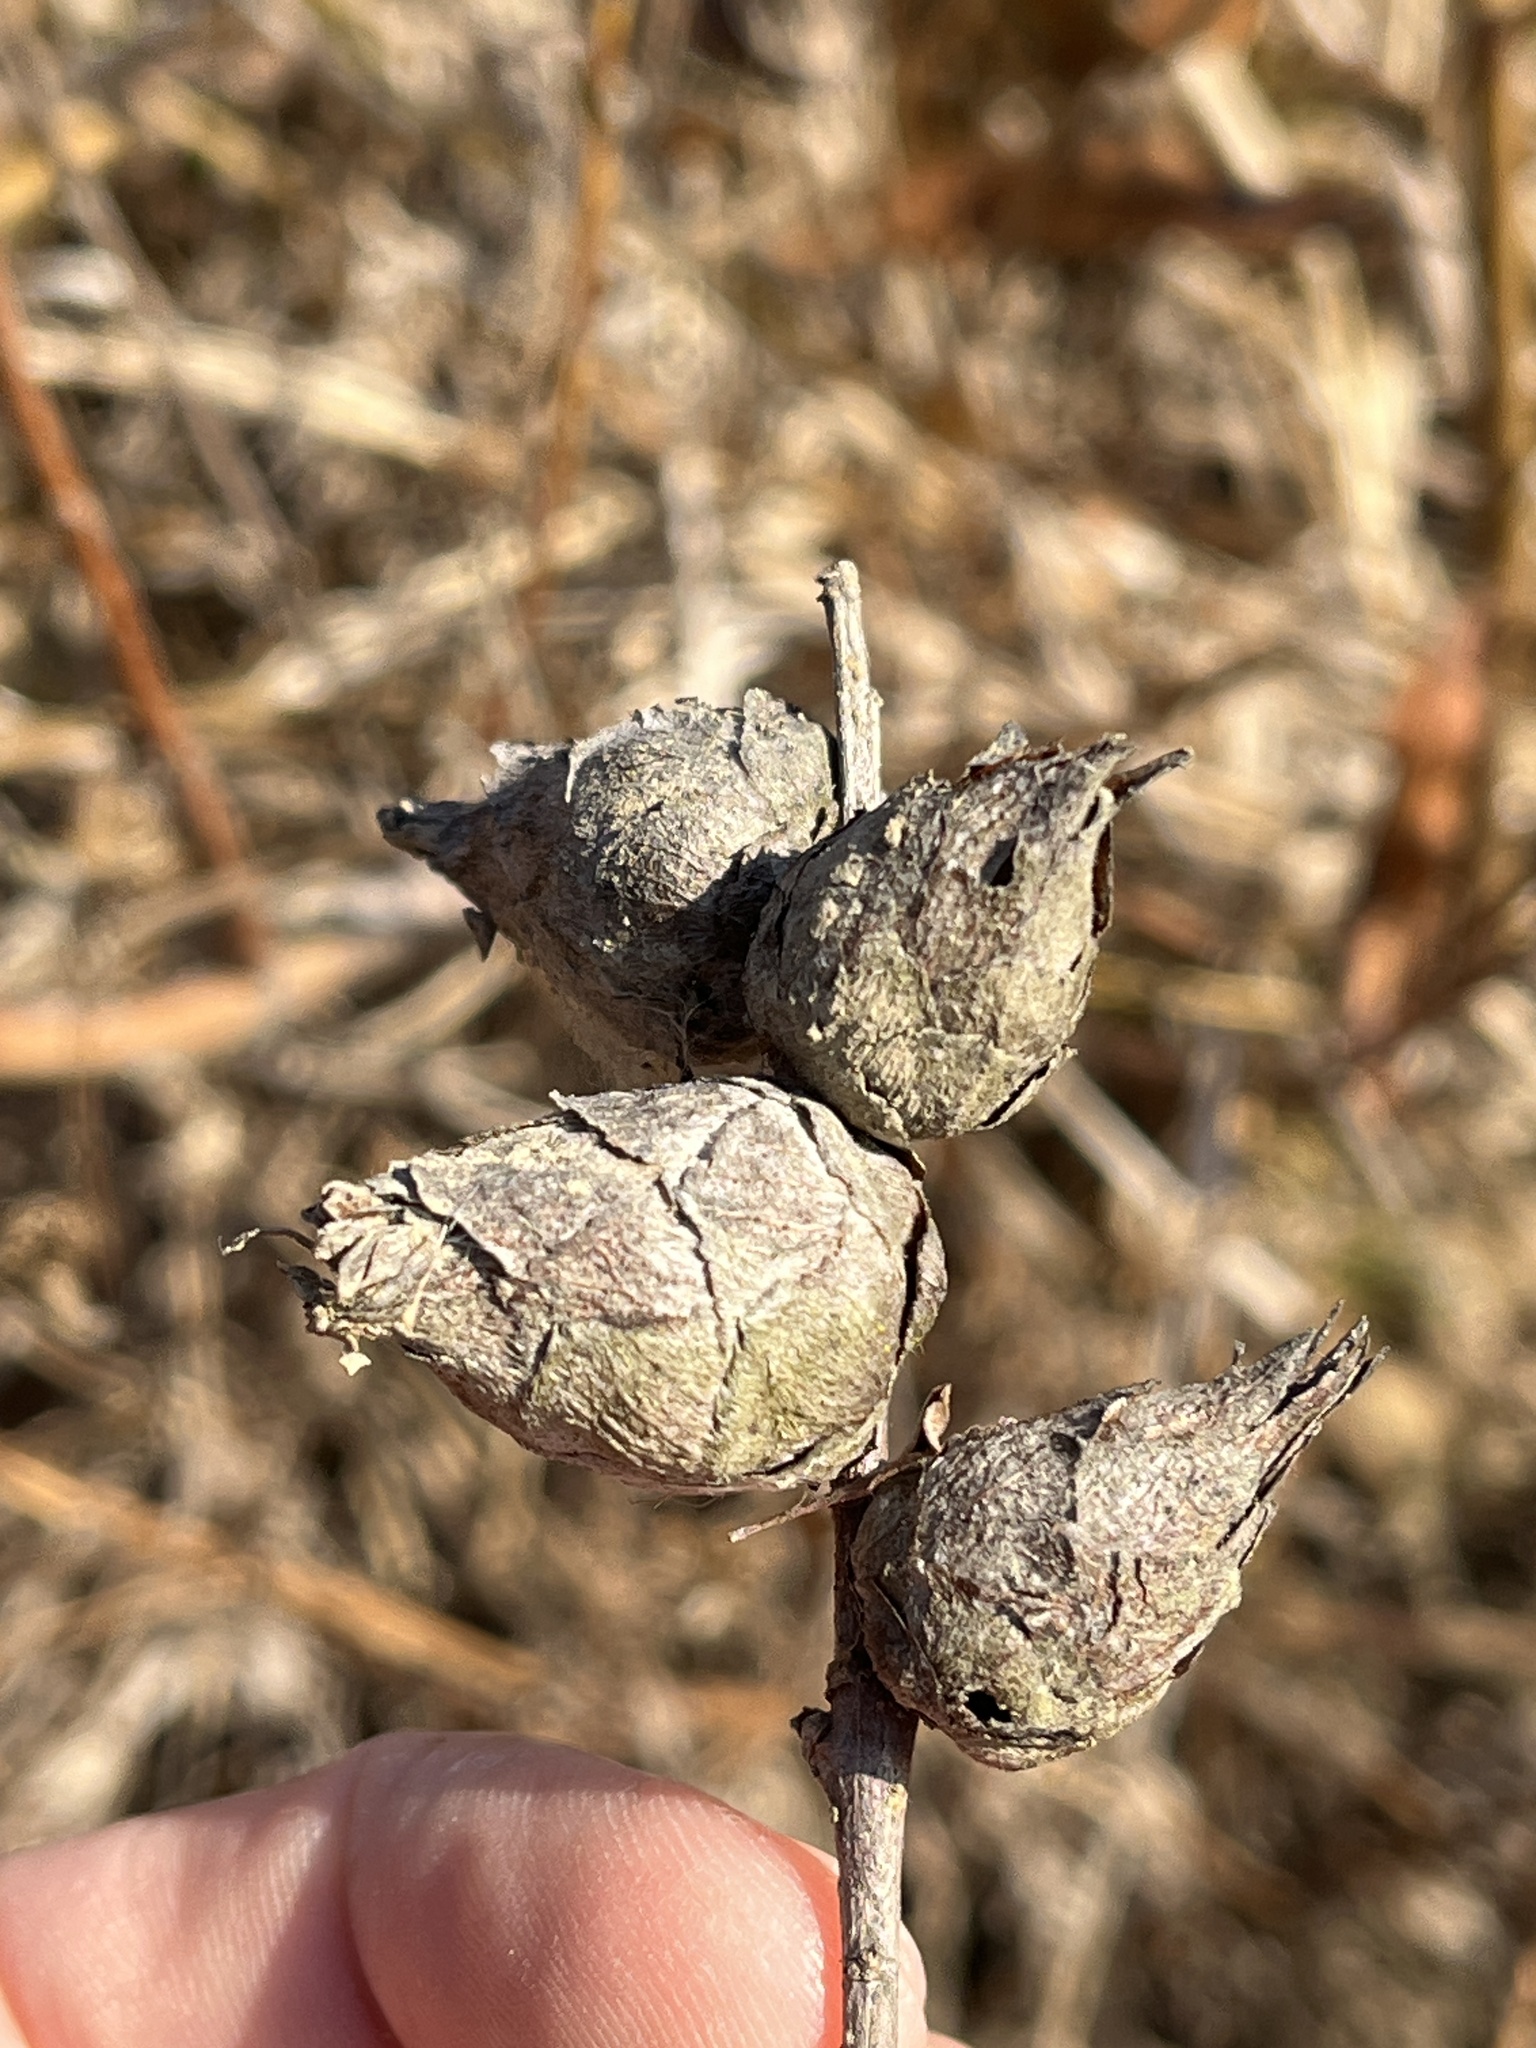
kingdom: Animalia
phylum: Arthropoda
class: Insecta
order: Diptera
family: Cecidomyiidae
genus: Rabdophaga
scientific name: Rabdophaga strobiloides
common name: Willow pinecone gall midge
